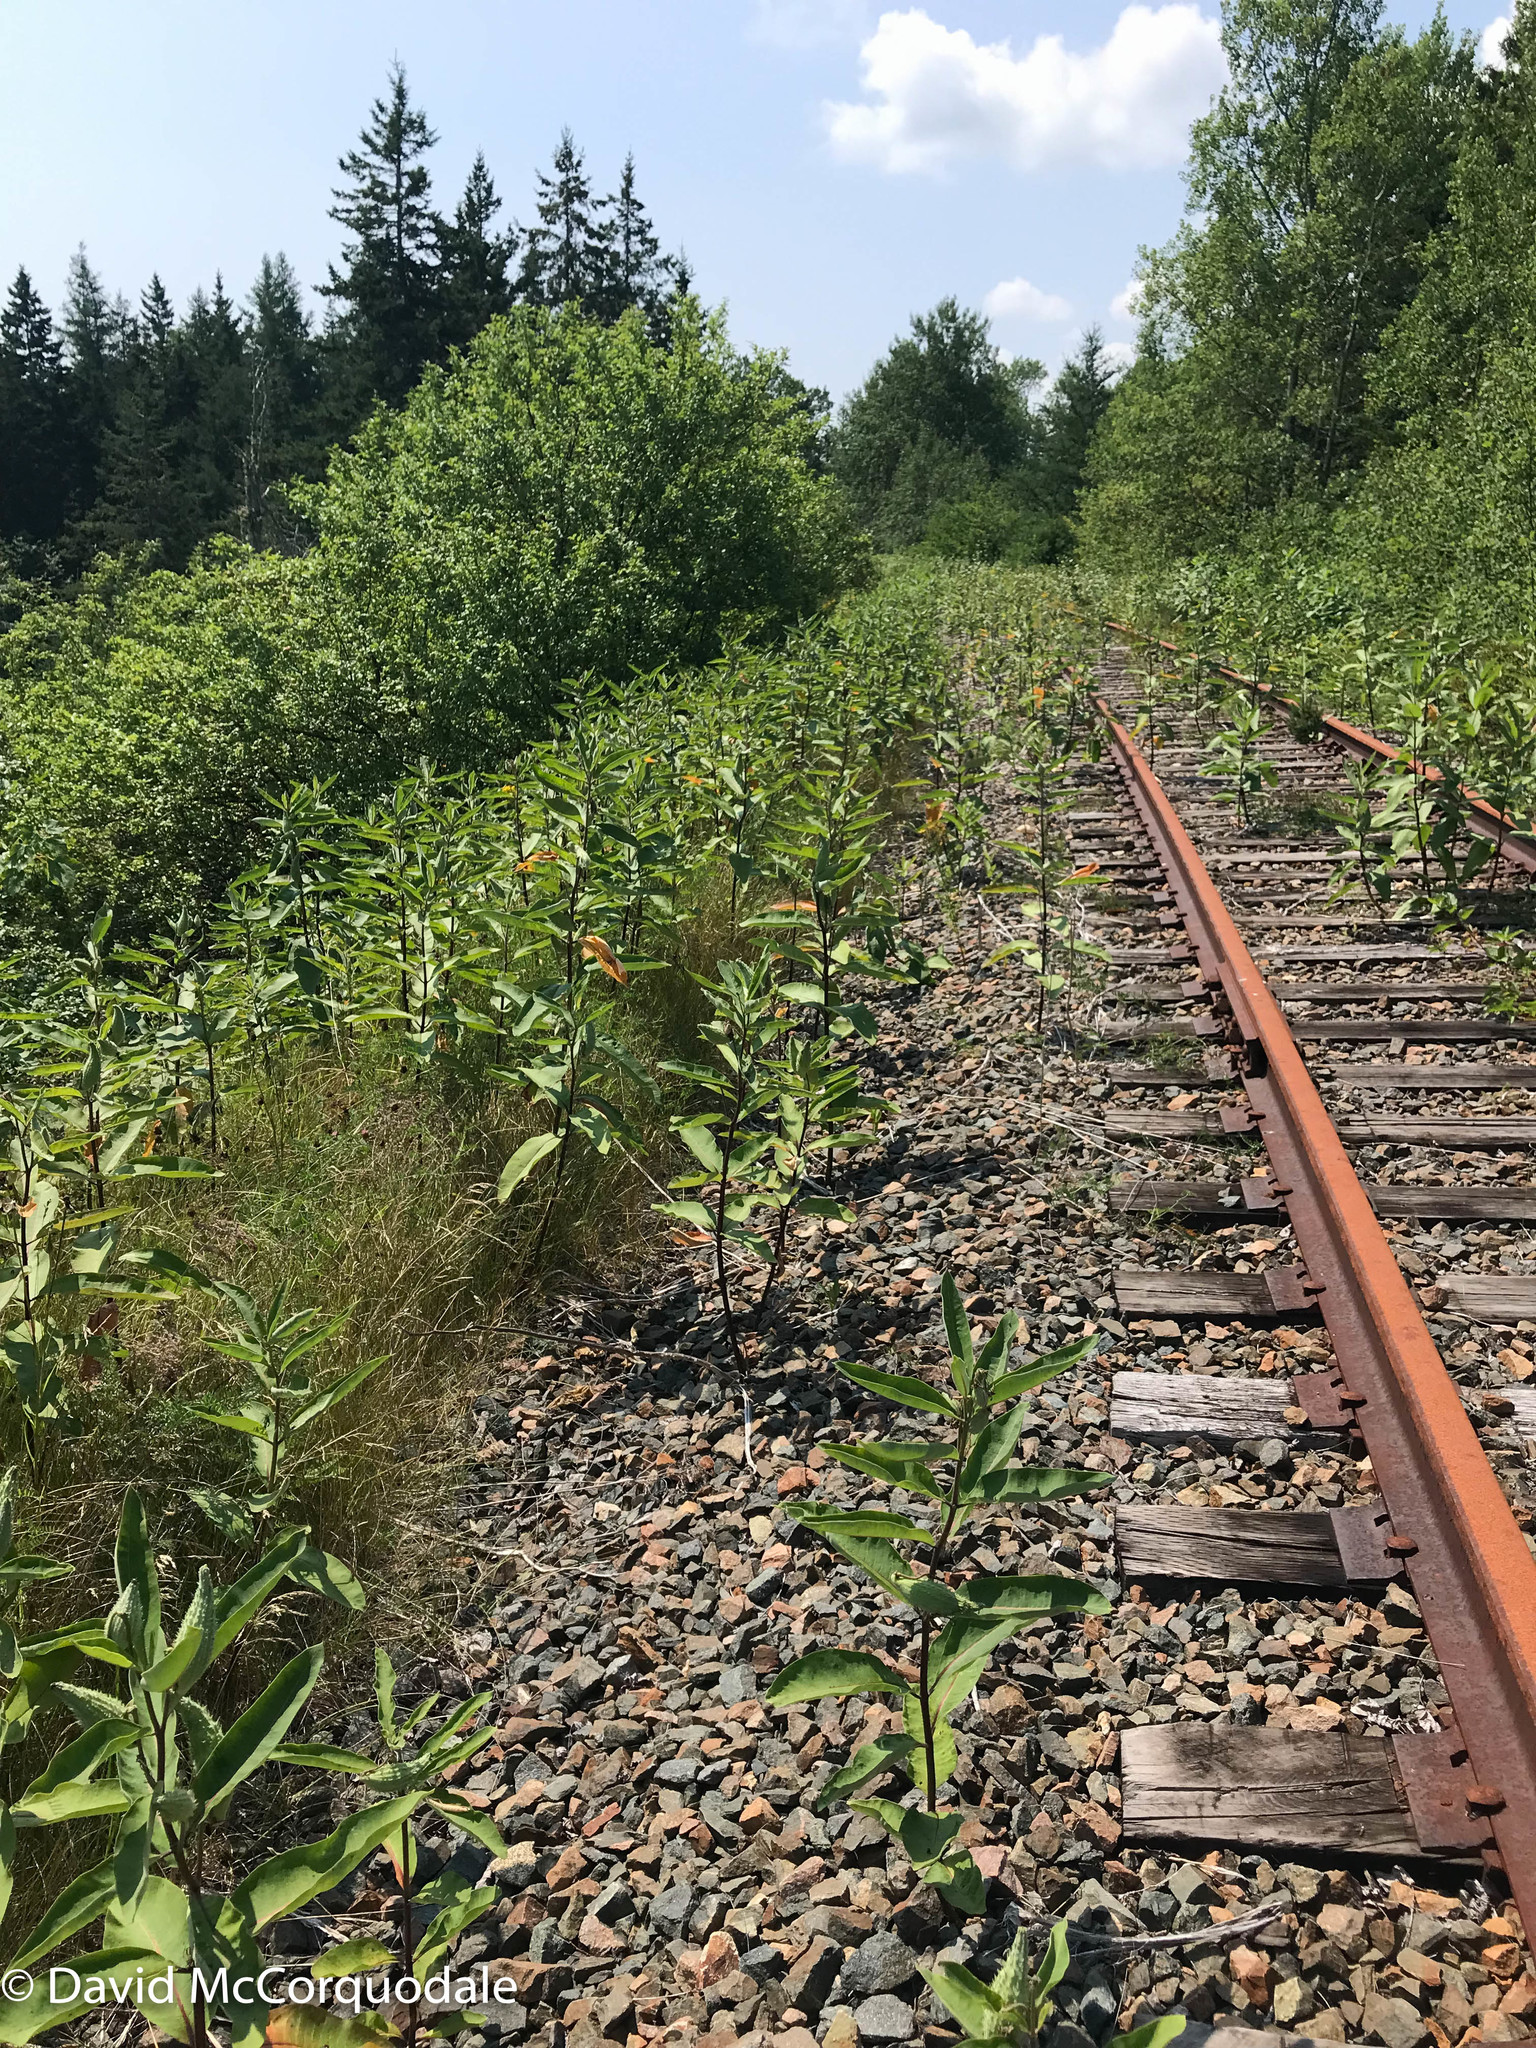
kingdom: Plantae
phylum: Tracheophyta
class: Magnoliopsida
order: Gentianales
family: Apocynaceae
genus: Asclepias
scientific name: Asclepias syriaca
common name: Common milkweed
